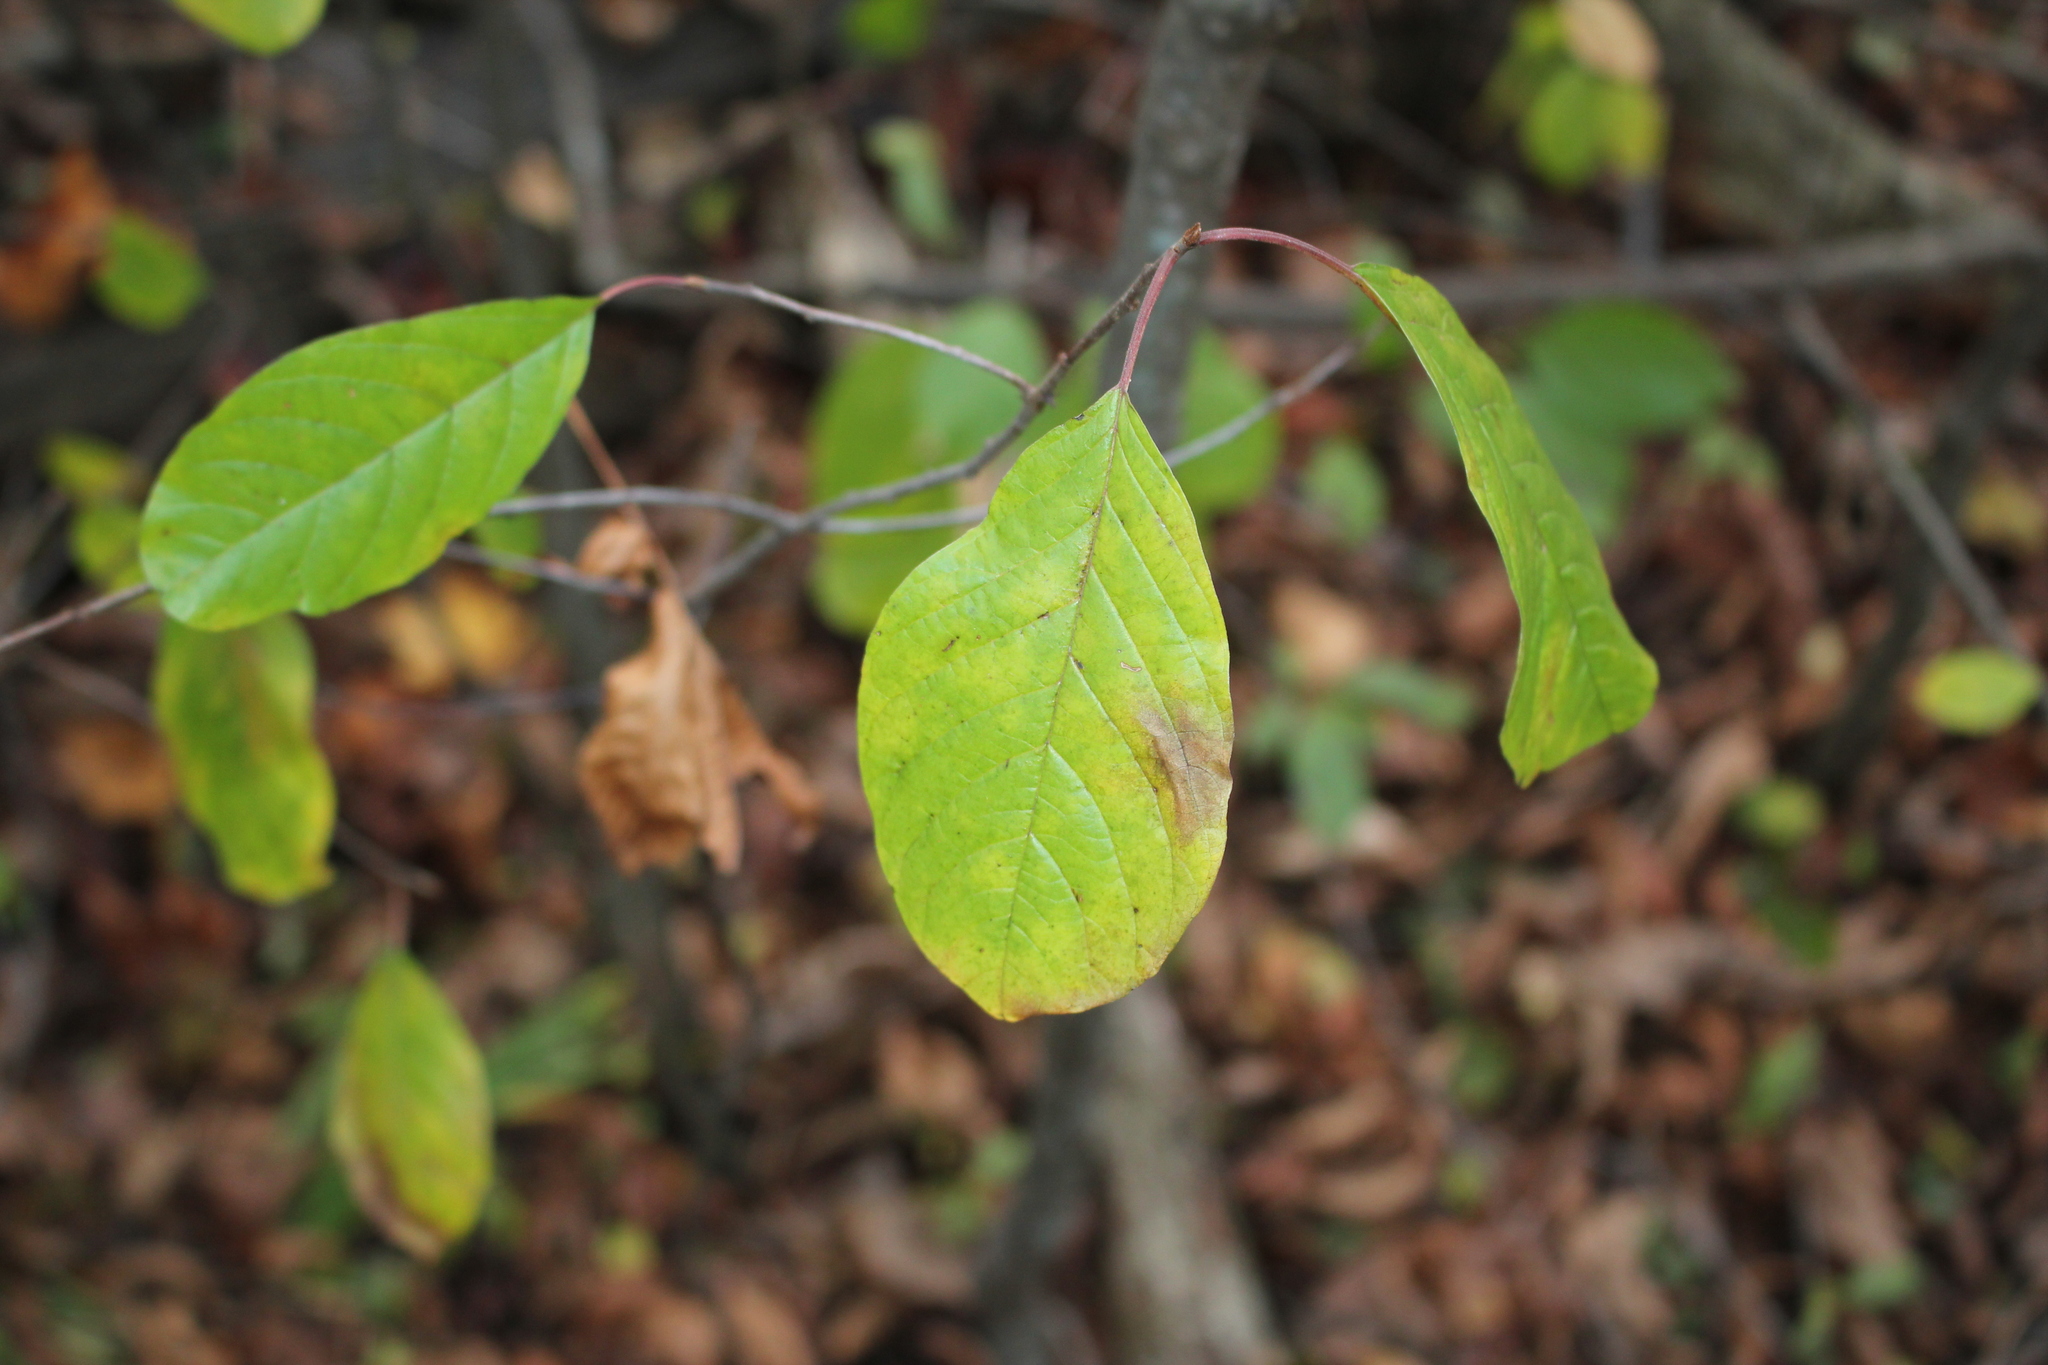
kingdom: Plantae
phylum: Tracheophyta
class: Magnoliopsida
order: Rosales
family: Rhamnaceae
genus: Frangula
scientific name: Frangula alnus
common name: Alder buckthorn
